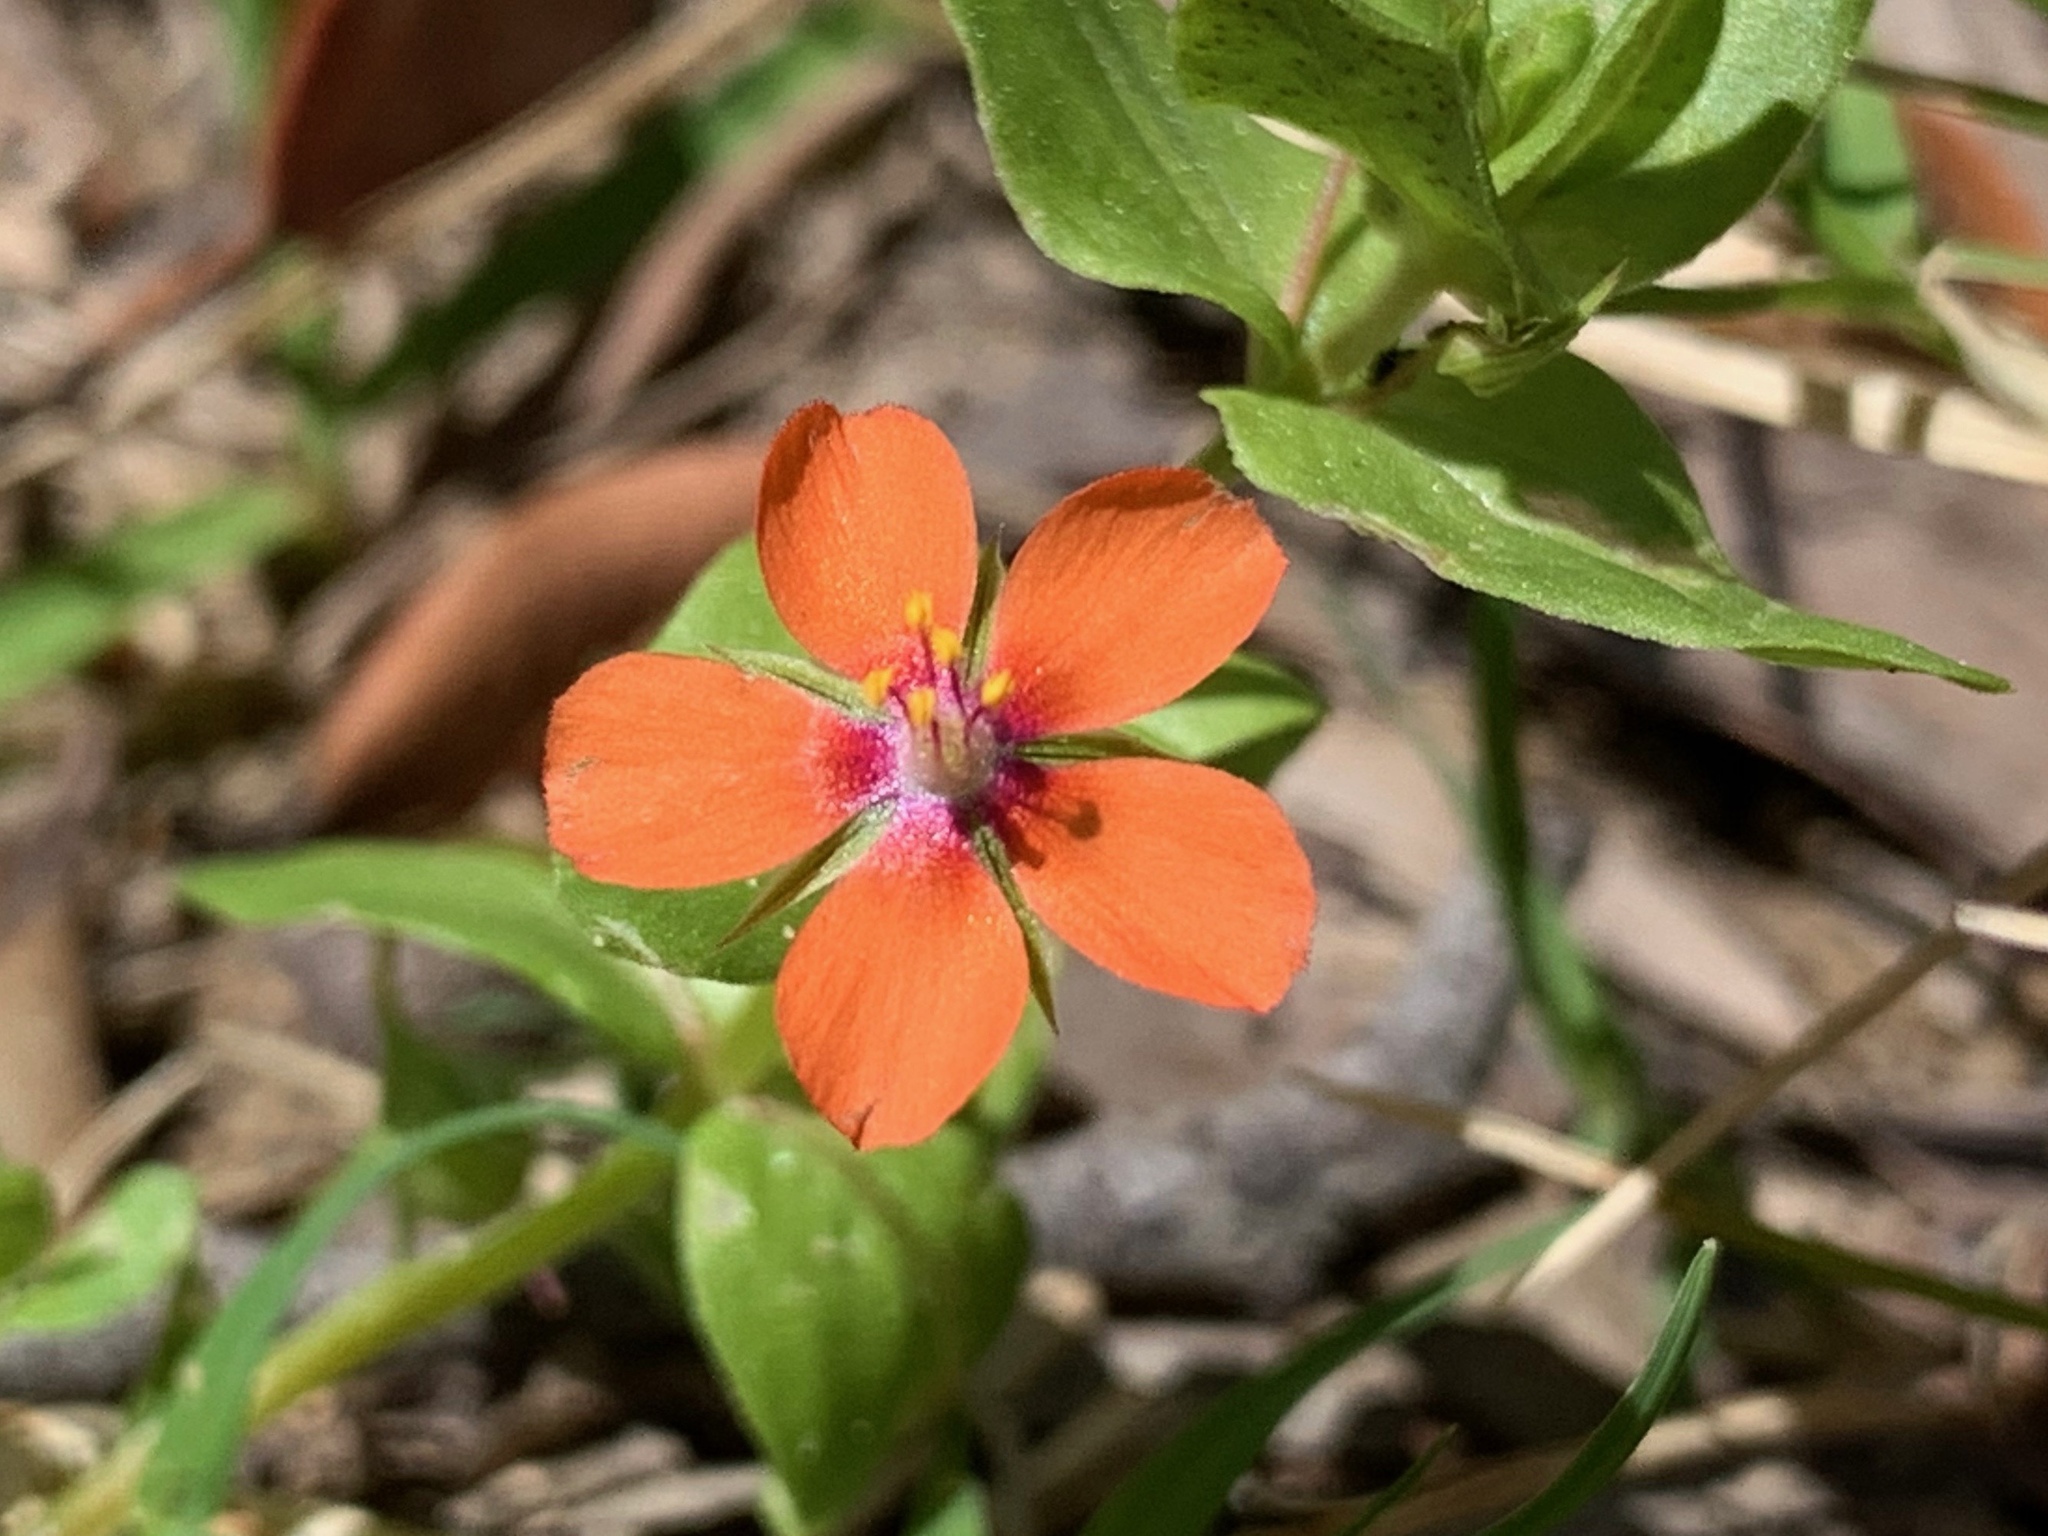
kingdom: Plantae
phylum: Tracheophyta
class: Magnoliopsida
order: Ericales
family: Primulaceae
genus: Lysimachia
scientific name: Lysimachia arvensis
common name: Scarlet pimpernel
